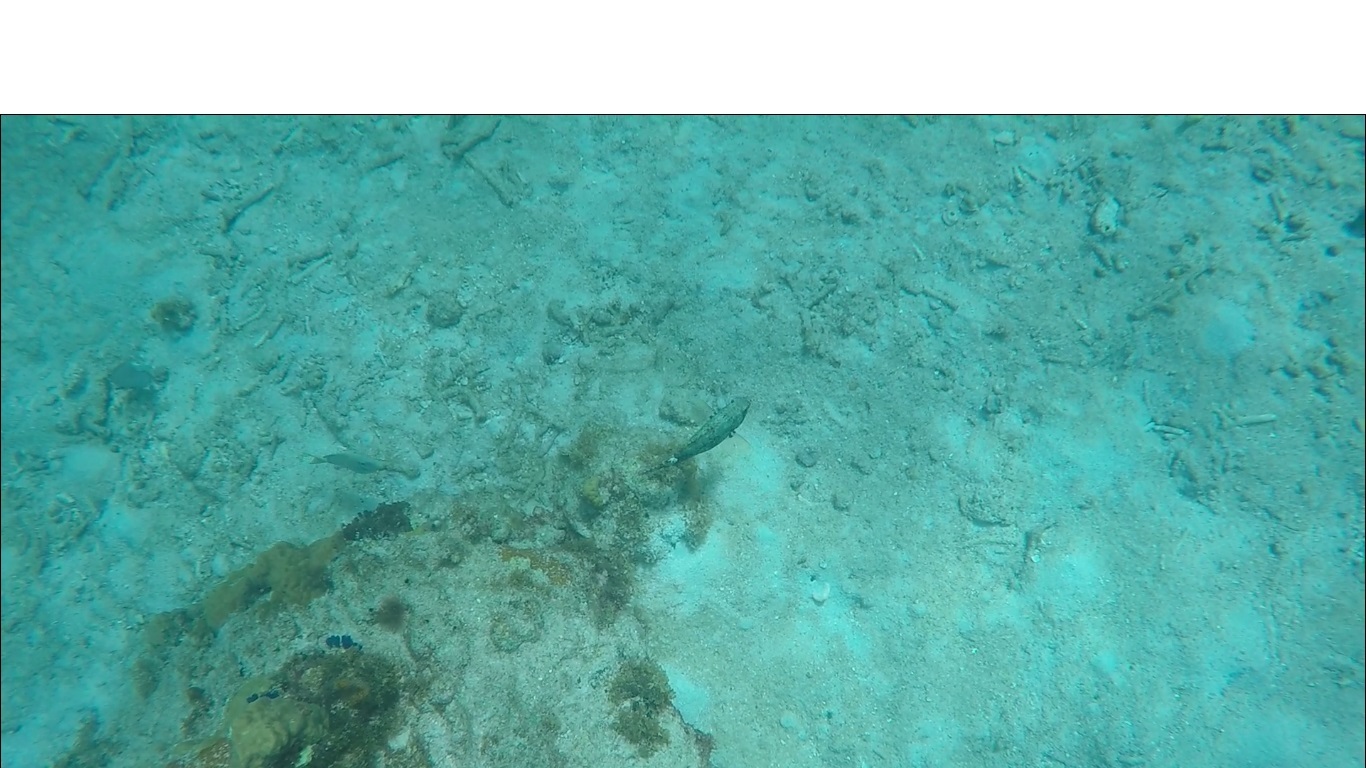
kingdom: Animalia
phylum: Chordata
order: Perciformes
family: Scaridae
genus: Sparisoma
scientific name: Sparisoma aurofrenatum
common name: Redband parrotfish
